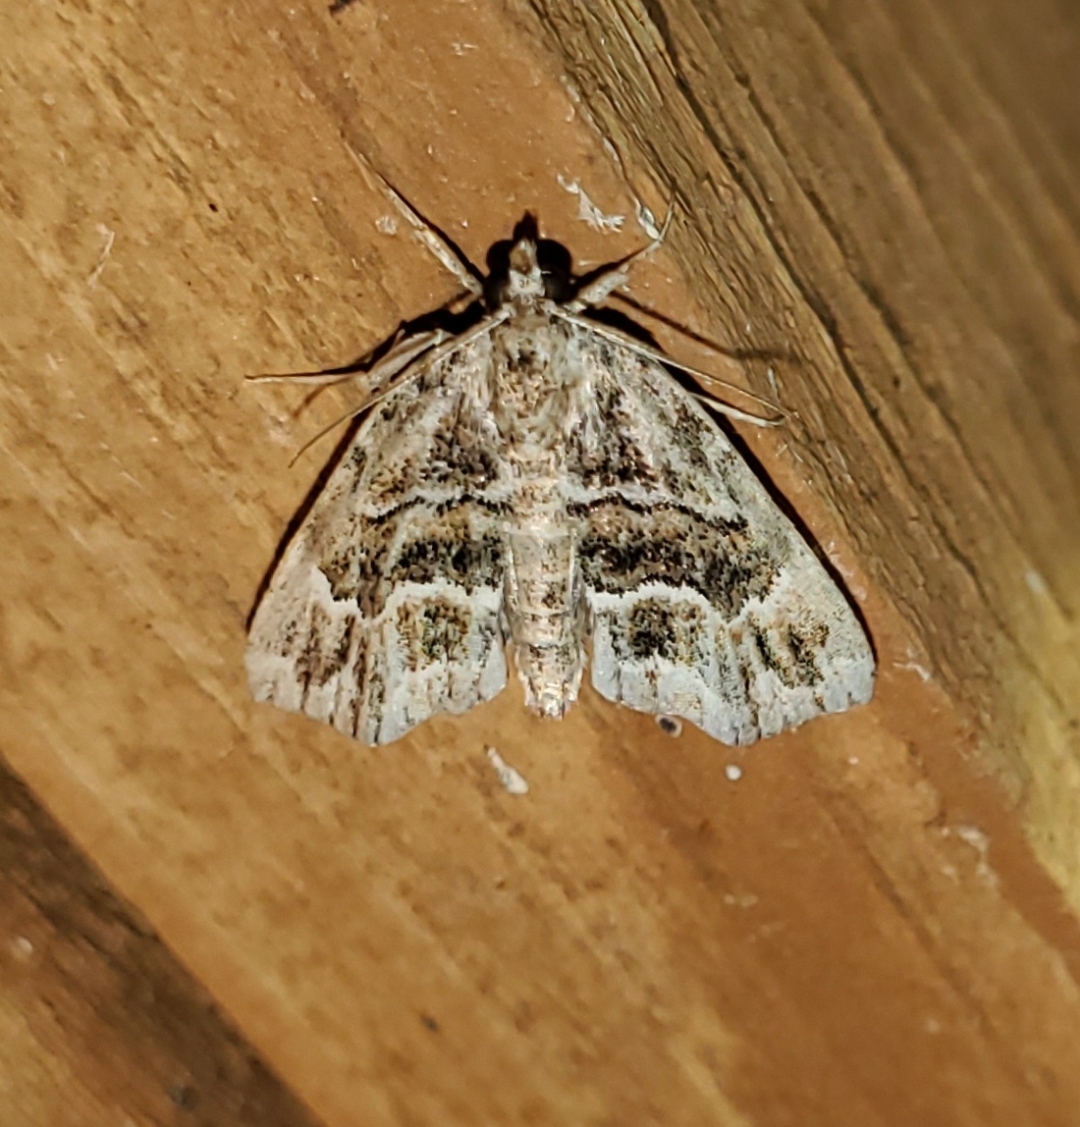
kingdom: Animalia
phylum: Arthropoda
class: Insecta
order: Lepidoptera
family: Erebidae
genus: Cutina
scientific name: Cutina arcuata
